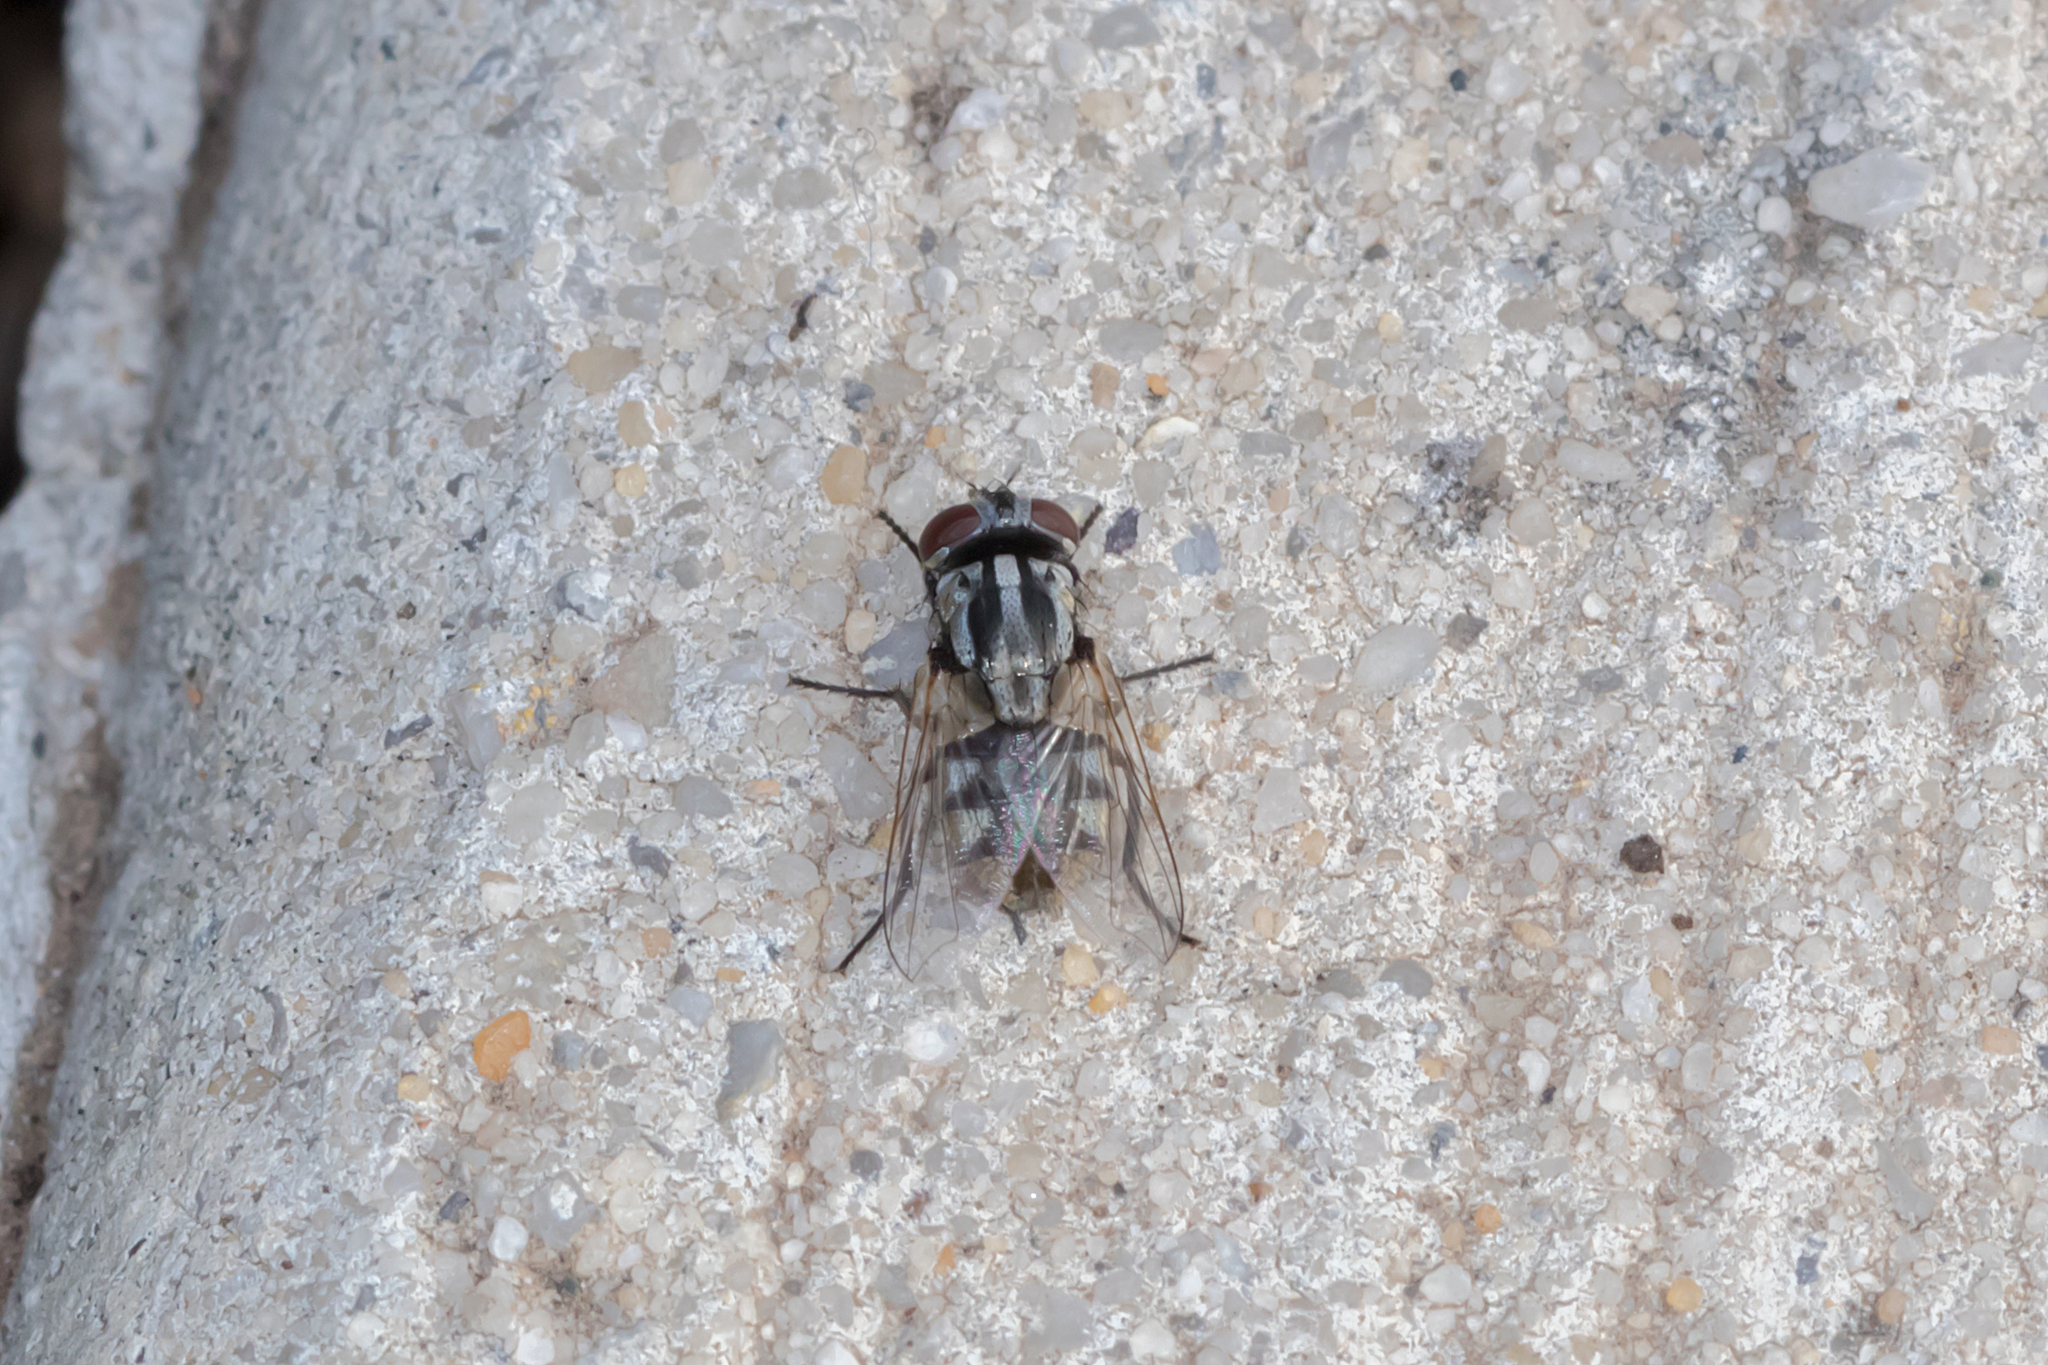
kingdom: Animalia
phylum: Arthropoda
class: Insecta
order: Diptera
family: Muscidae
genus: Musca
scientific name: Musca vetustissima
